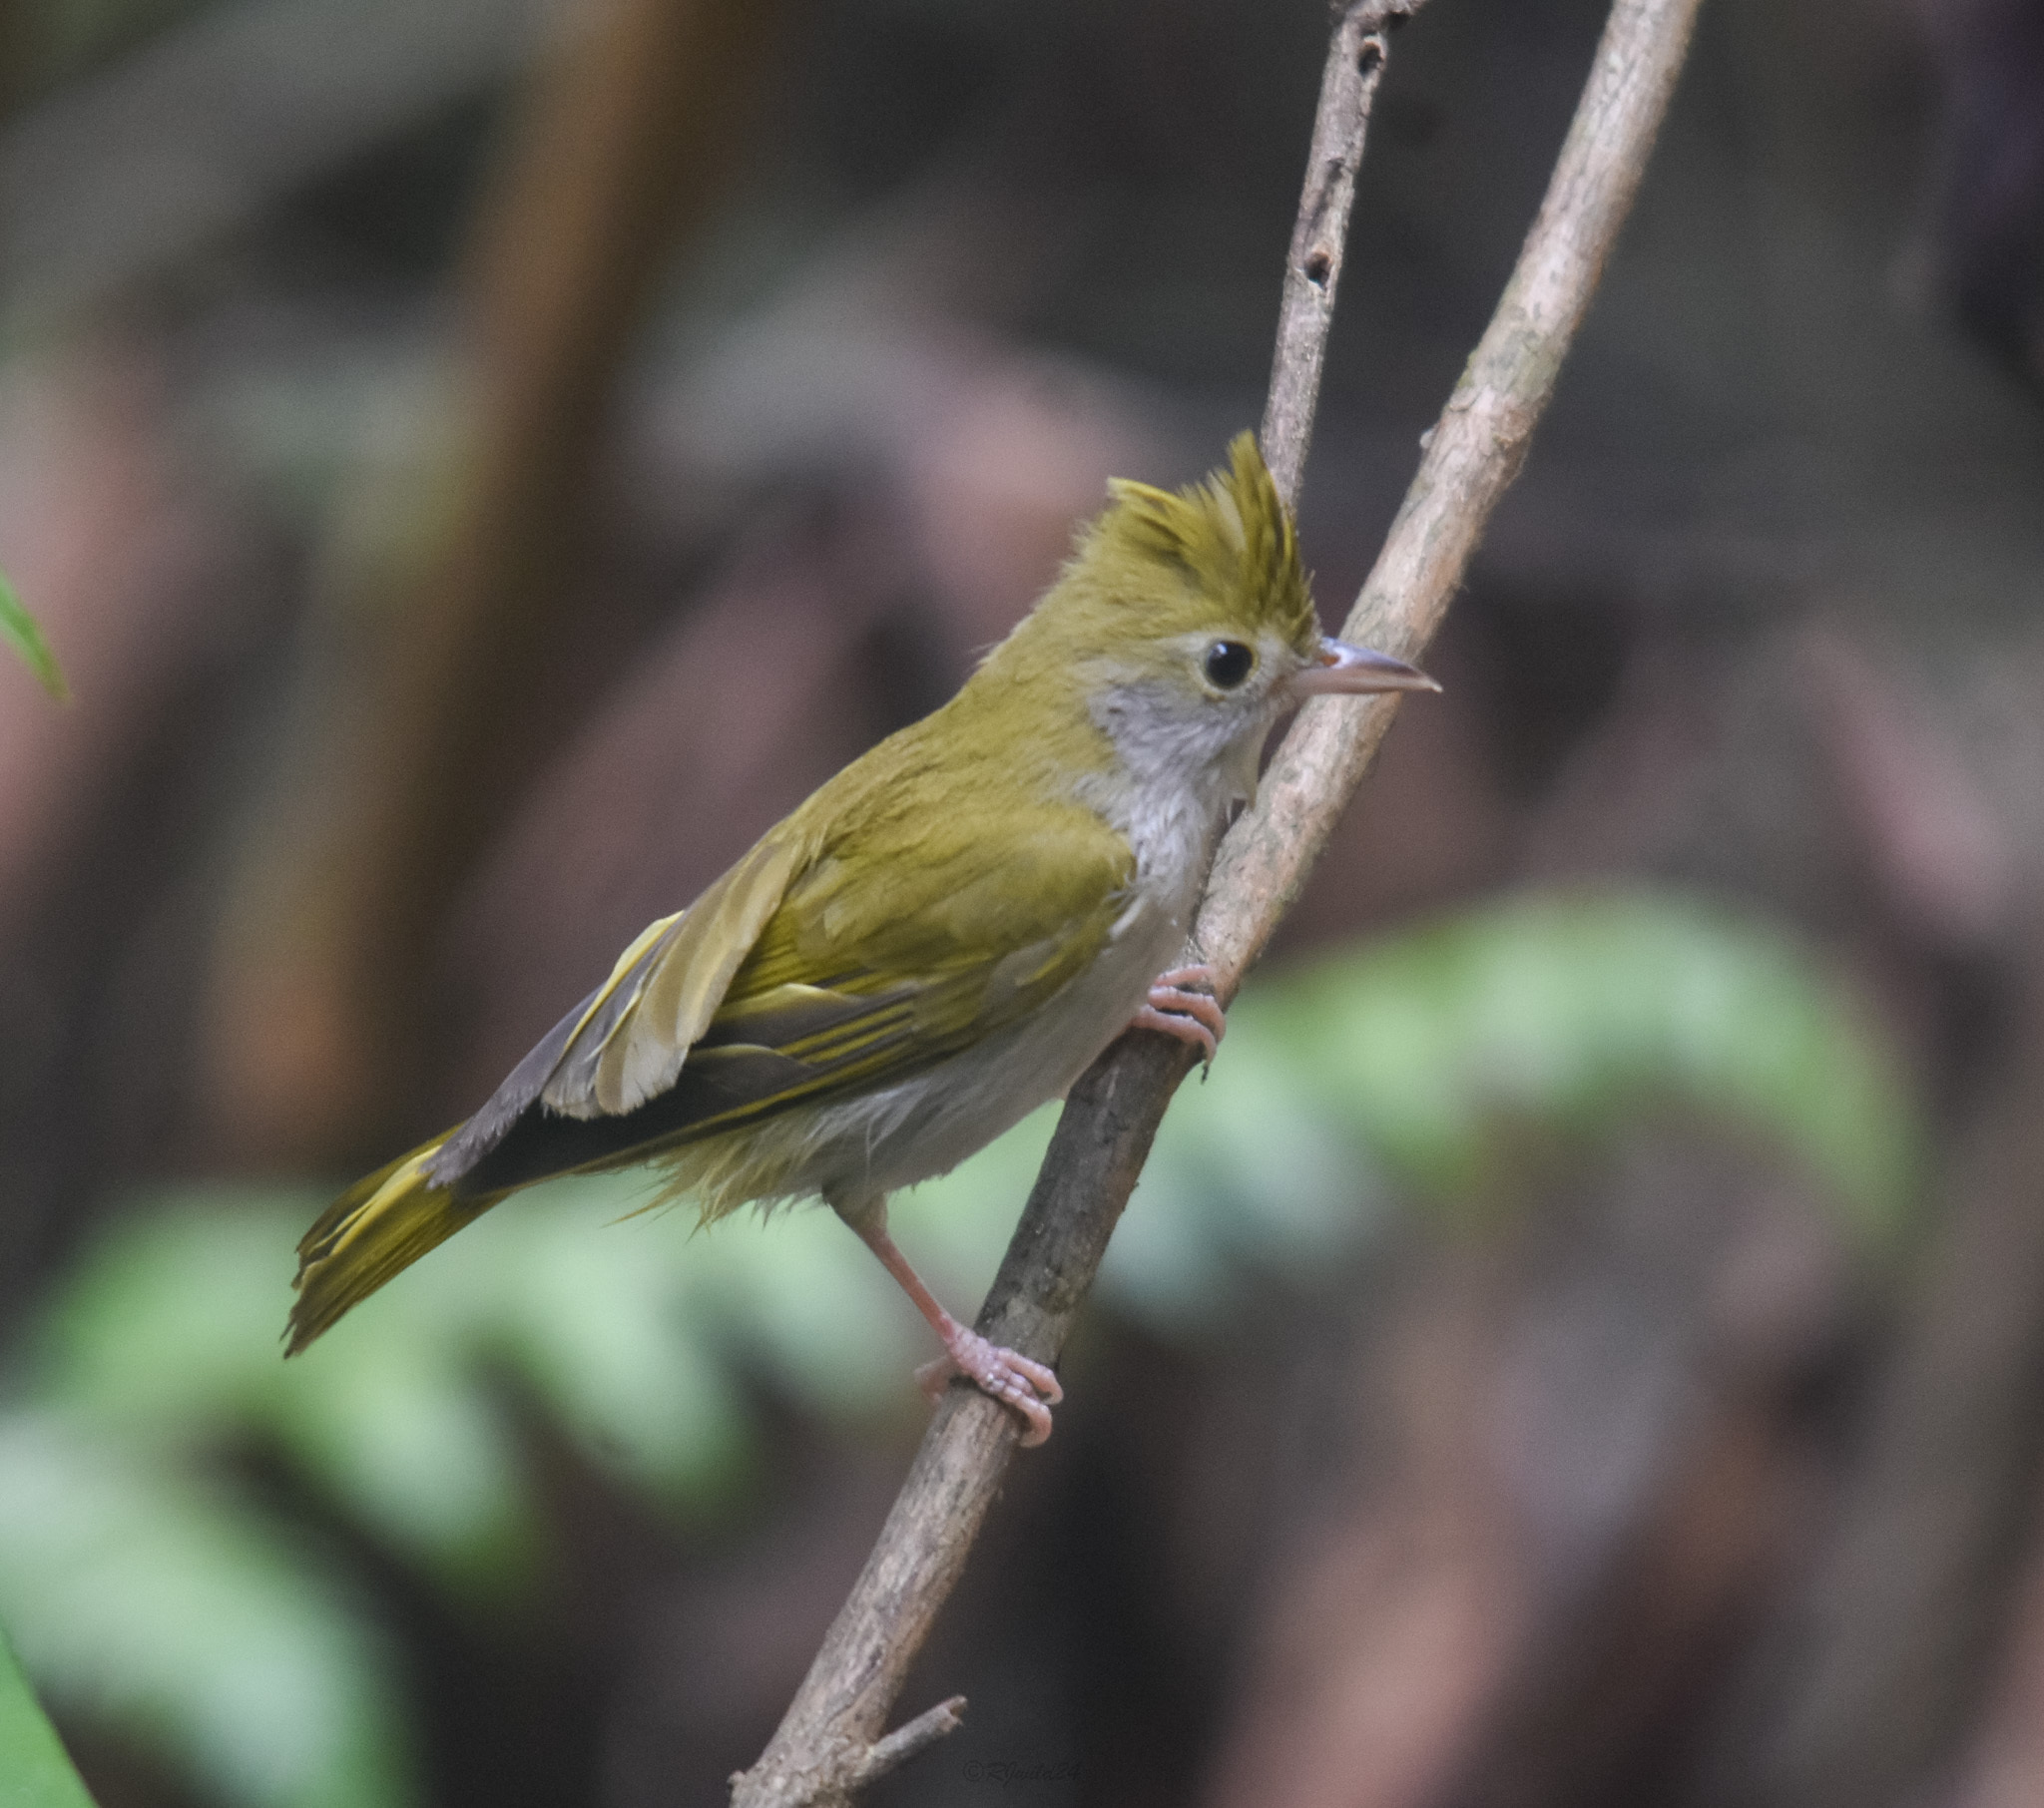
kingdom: Animalia
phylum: Chordata
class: Aves
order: Passeriformes
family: Vireonidae
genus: Erpornis
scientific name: Erpornis zantholeuca
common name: White-bellied erpornis
